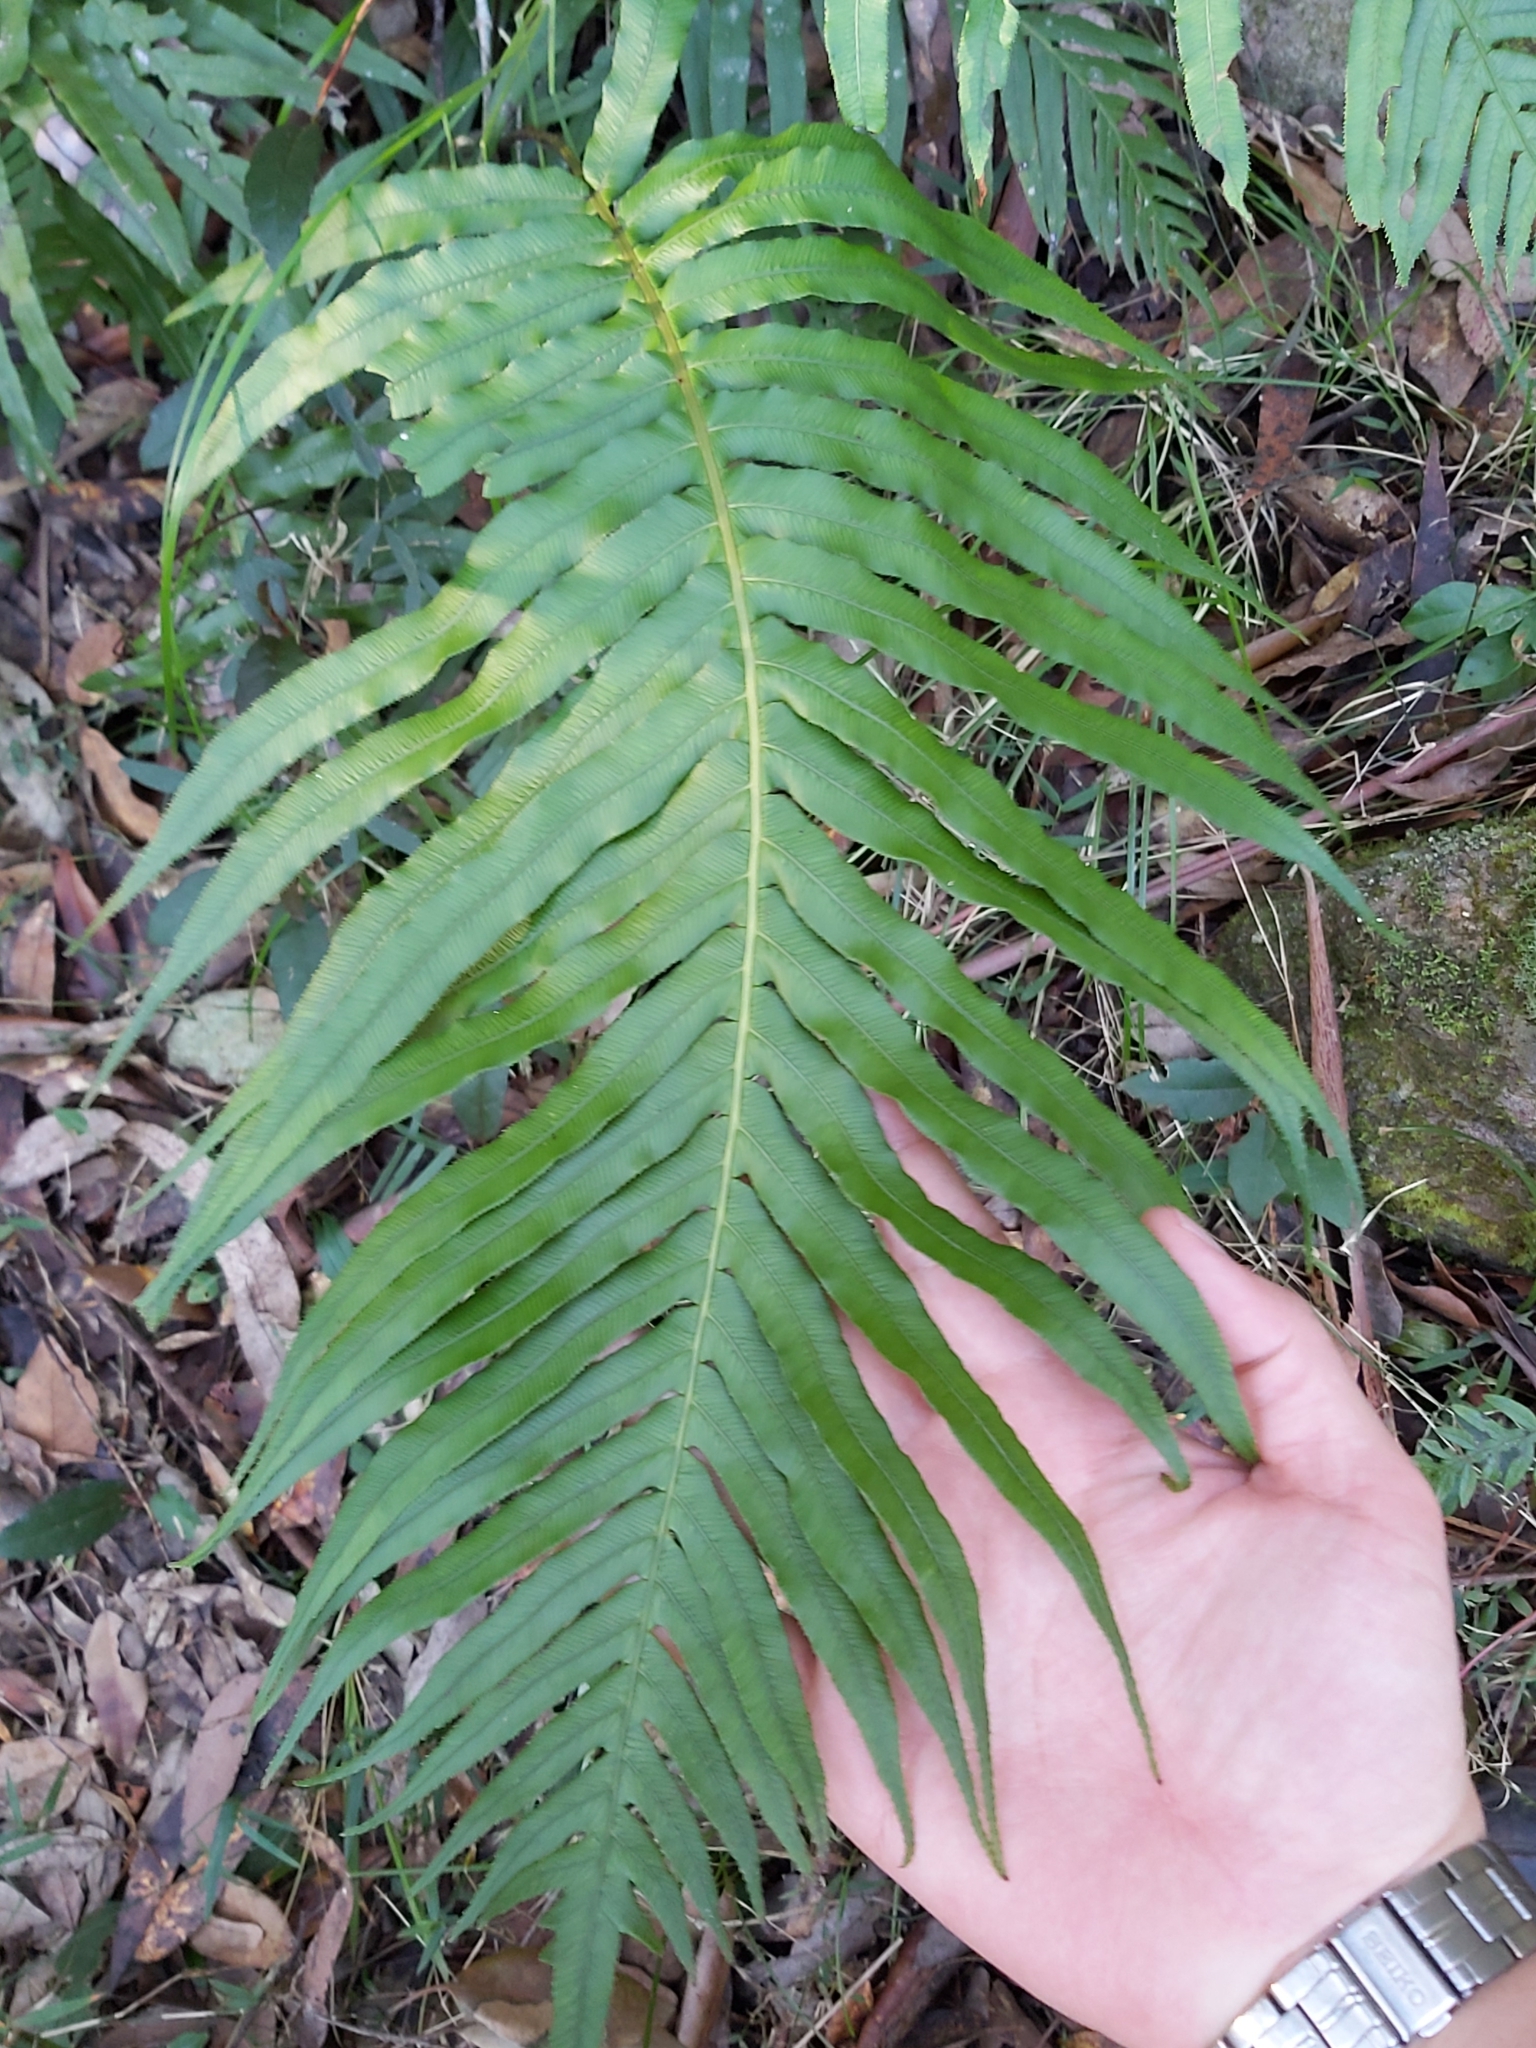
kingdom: Plantae
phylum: Tracheophyta
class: Polypodiopsida
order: Polypodiales
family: Blechnaceae
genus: Oceaniopteris
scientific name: Oceaniopteris cartilaginea
